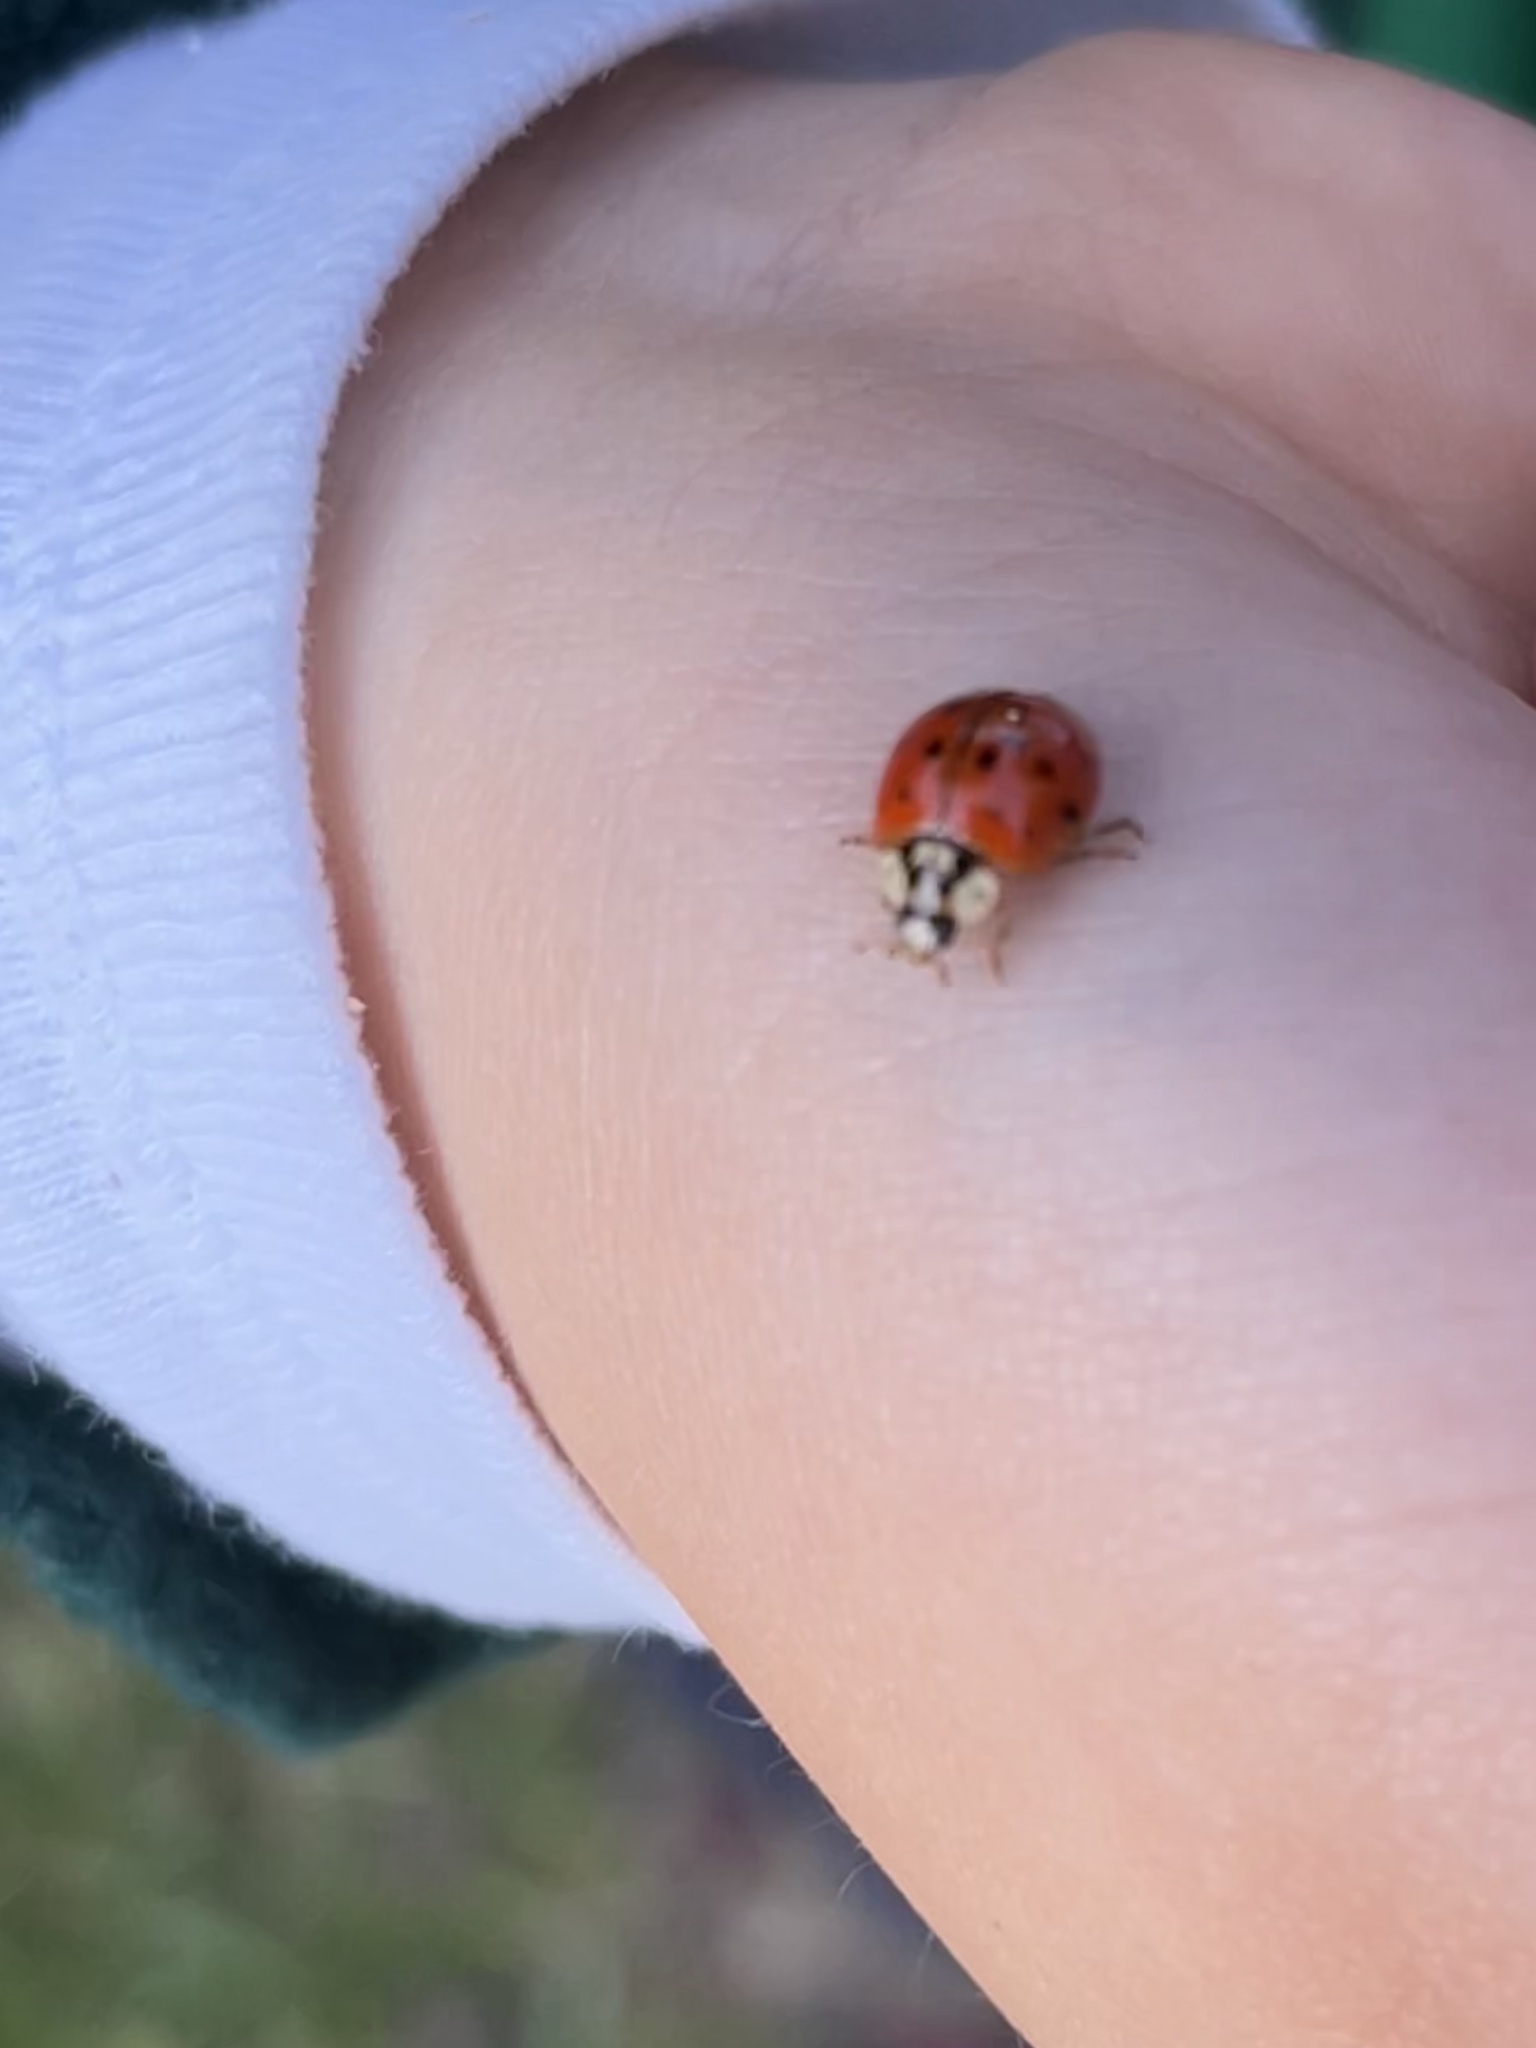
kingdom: Animalia
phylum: Arthropoda
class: Insecta
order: Coleoptera
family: Coccinellidae
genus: Harmonia
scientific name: Harmonia axyridis
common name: Harlequin ladybird
